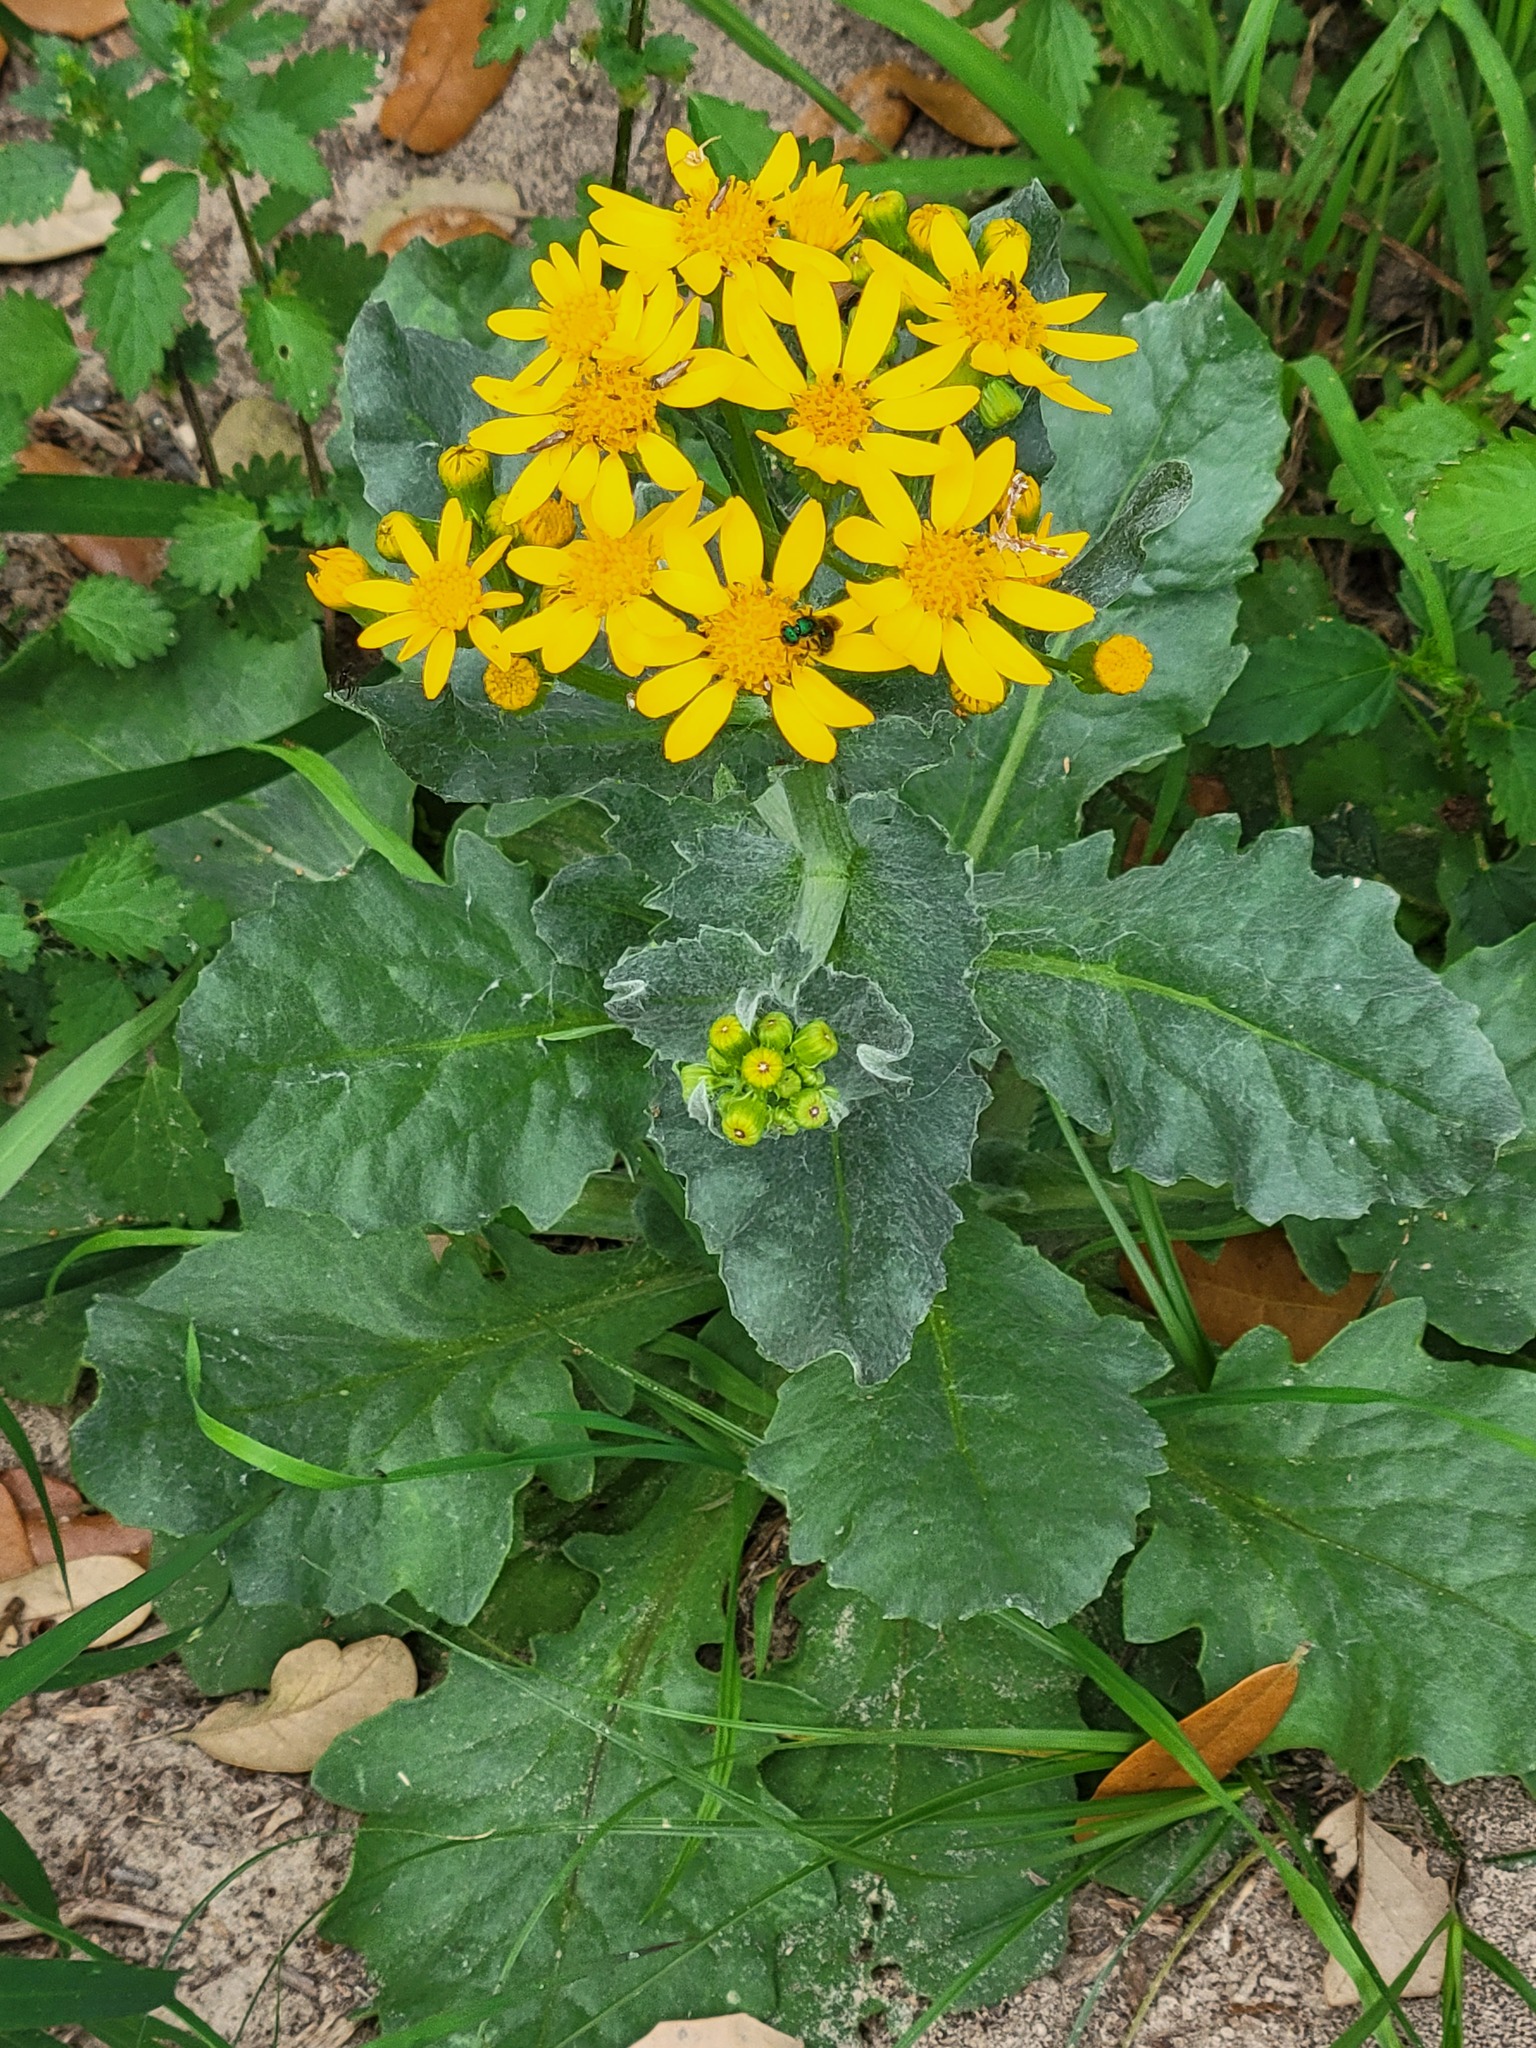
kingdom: Plantae
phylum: Tracheophyta
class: Magnoliopsida
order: Asterales
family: Asteraceae
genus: Senecio
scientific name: Senecio ampullaceus
